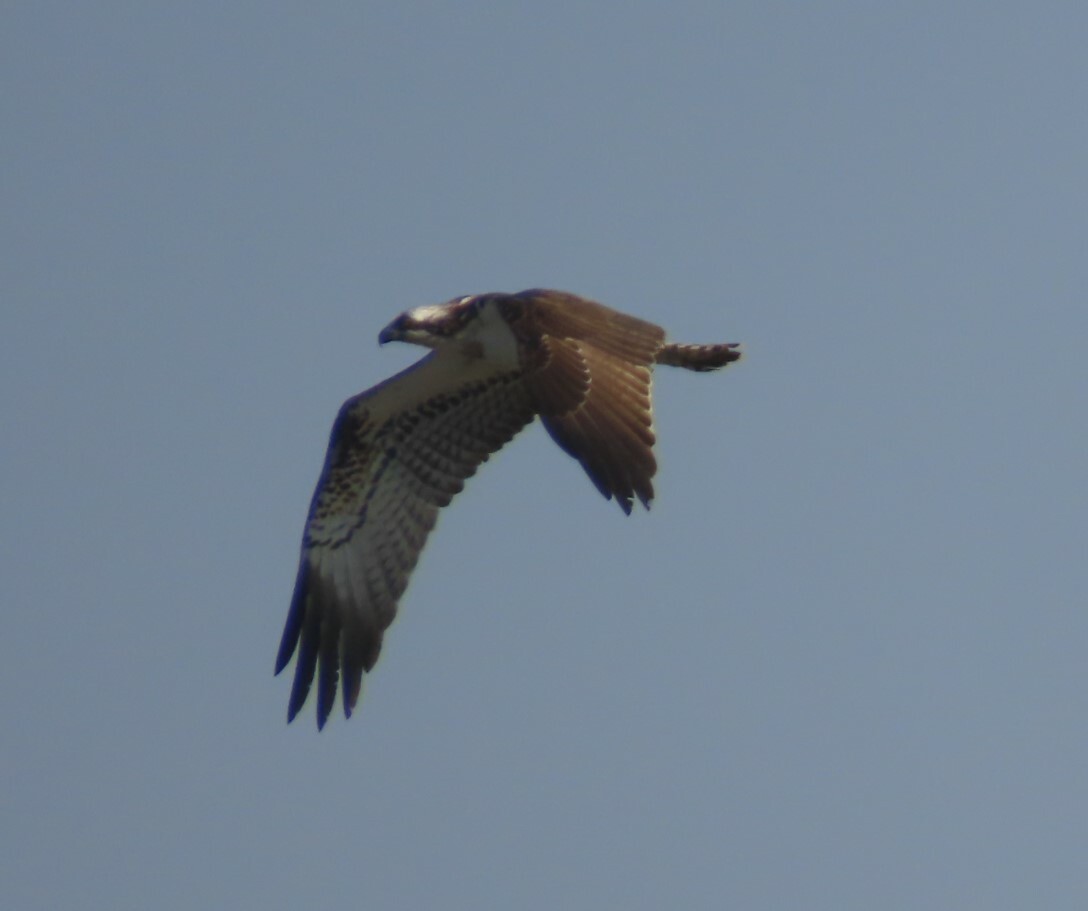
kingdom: Animalia
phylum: Chordata
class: Aves
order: Accipitriformes
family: Pandionidae
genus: Pandion
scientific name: Pandion haliaetus
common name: Osprey
